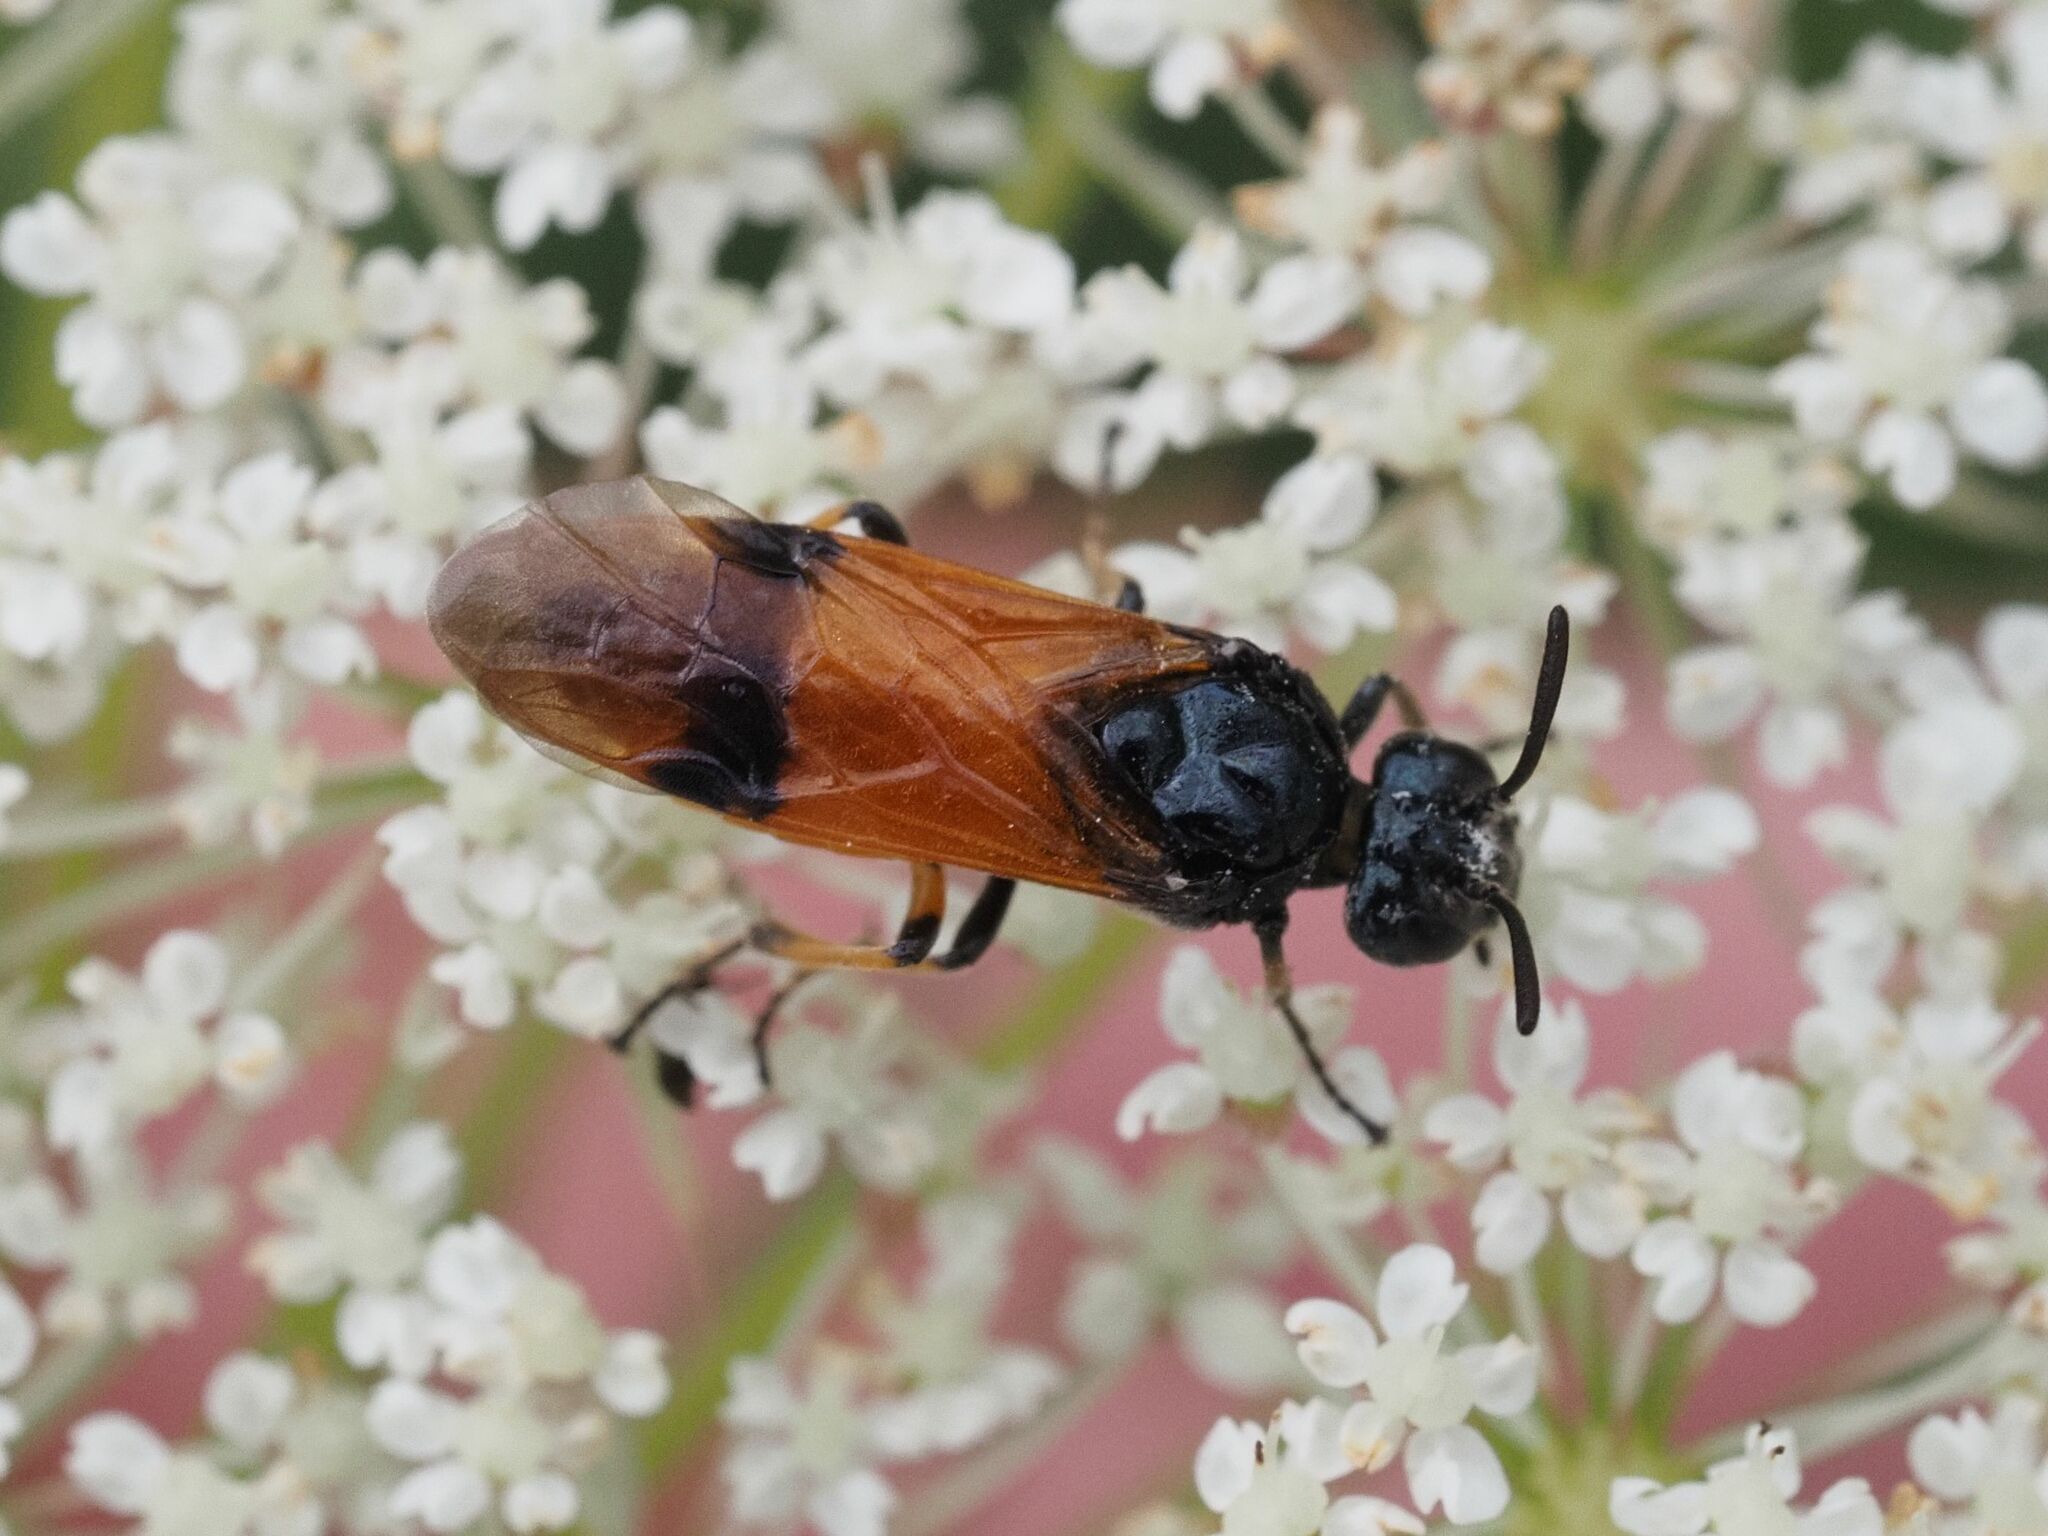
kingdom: Animalia
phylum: Arthropoda
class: Insecta
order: Hymenoptera
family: Argidae
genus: Arge
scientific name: Arge cyanocrocea
